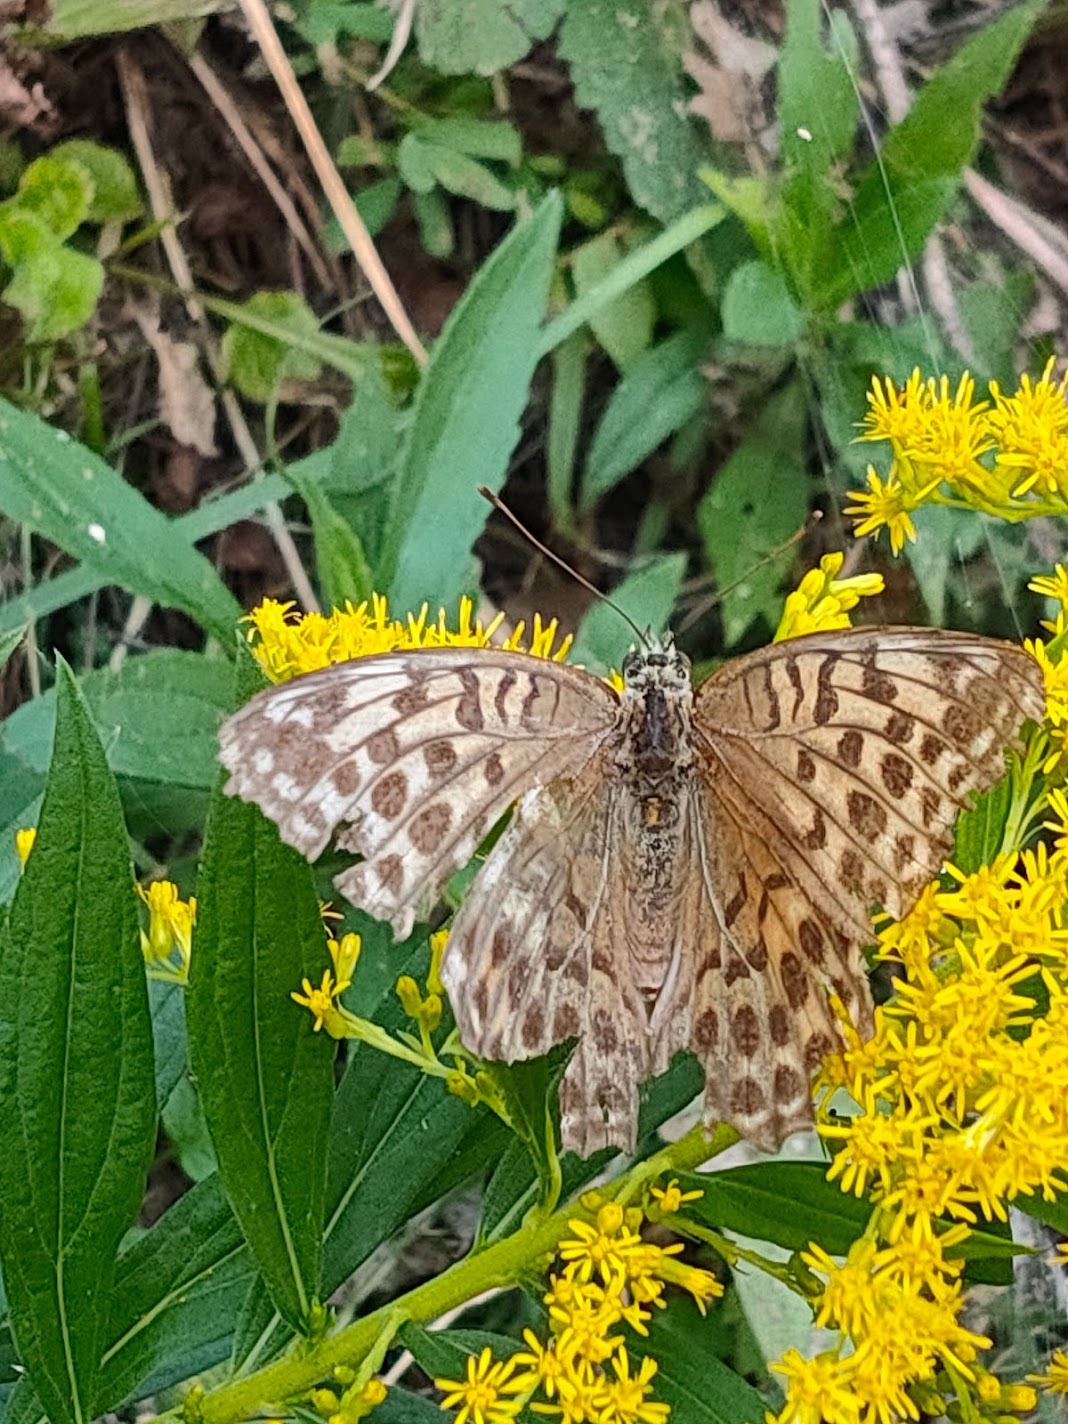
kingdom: Animalia
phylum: Arthropoda
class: Insecta
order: Lepidoptera
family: Nymphalidae
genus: Argynnis
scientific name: Argynnis paphia
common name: Silver-washed fritillary
